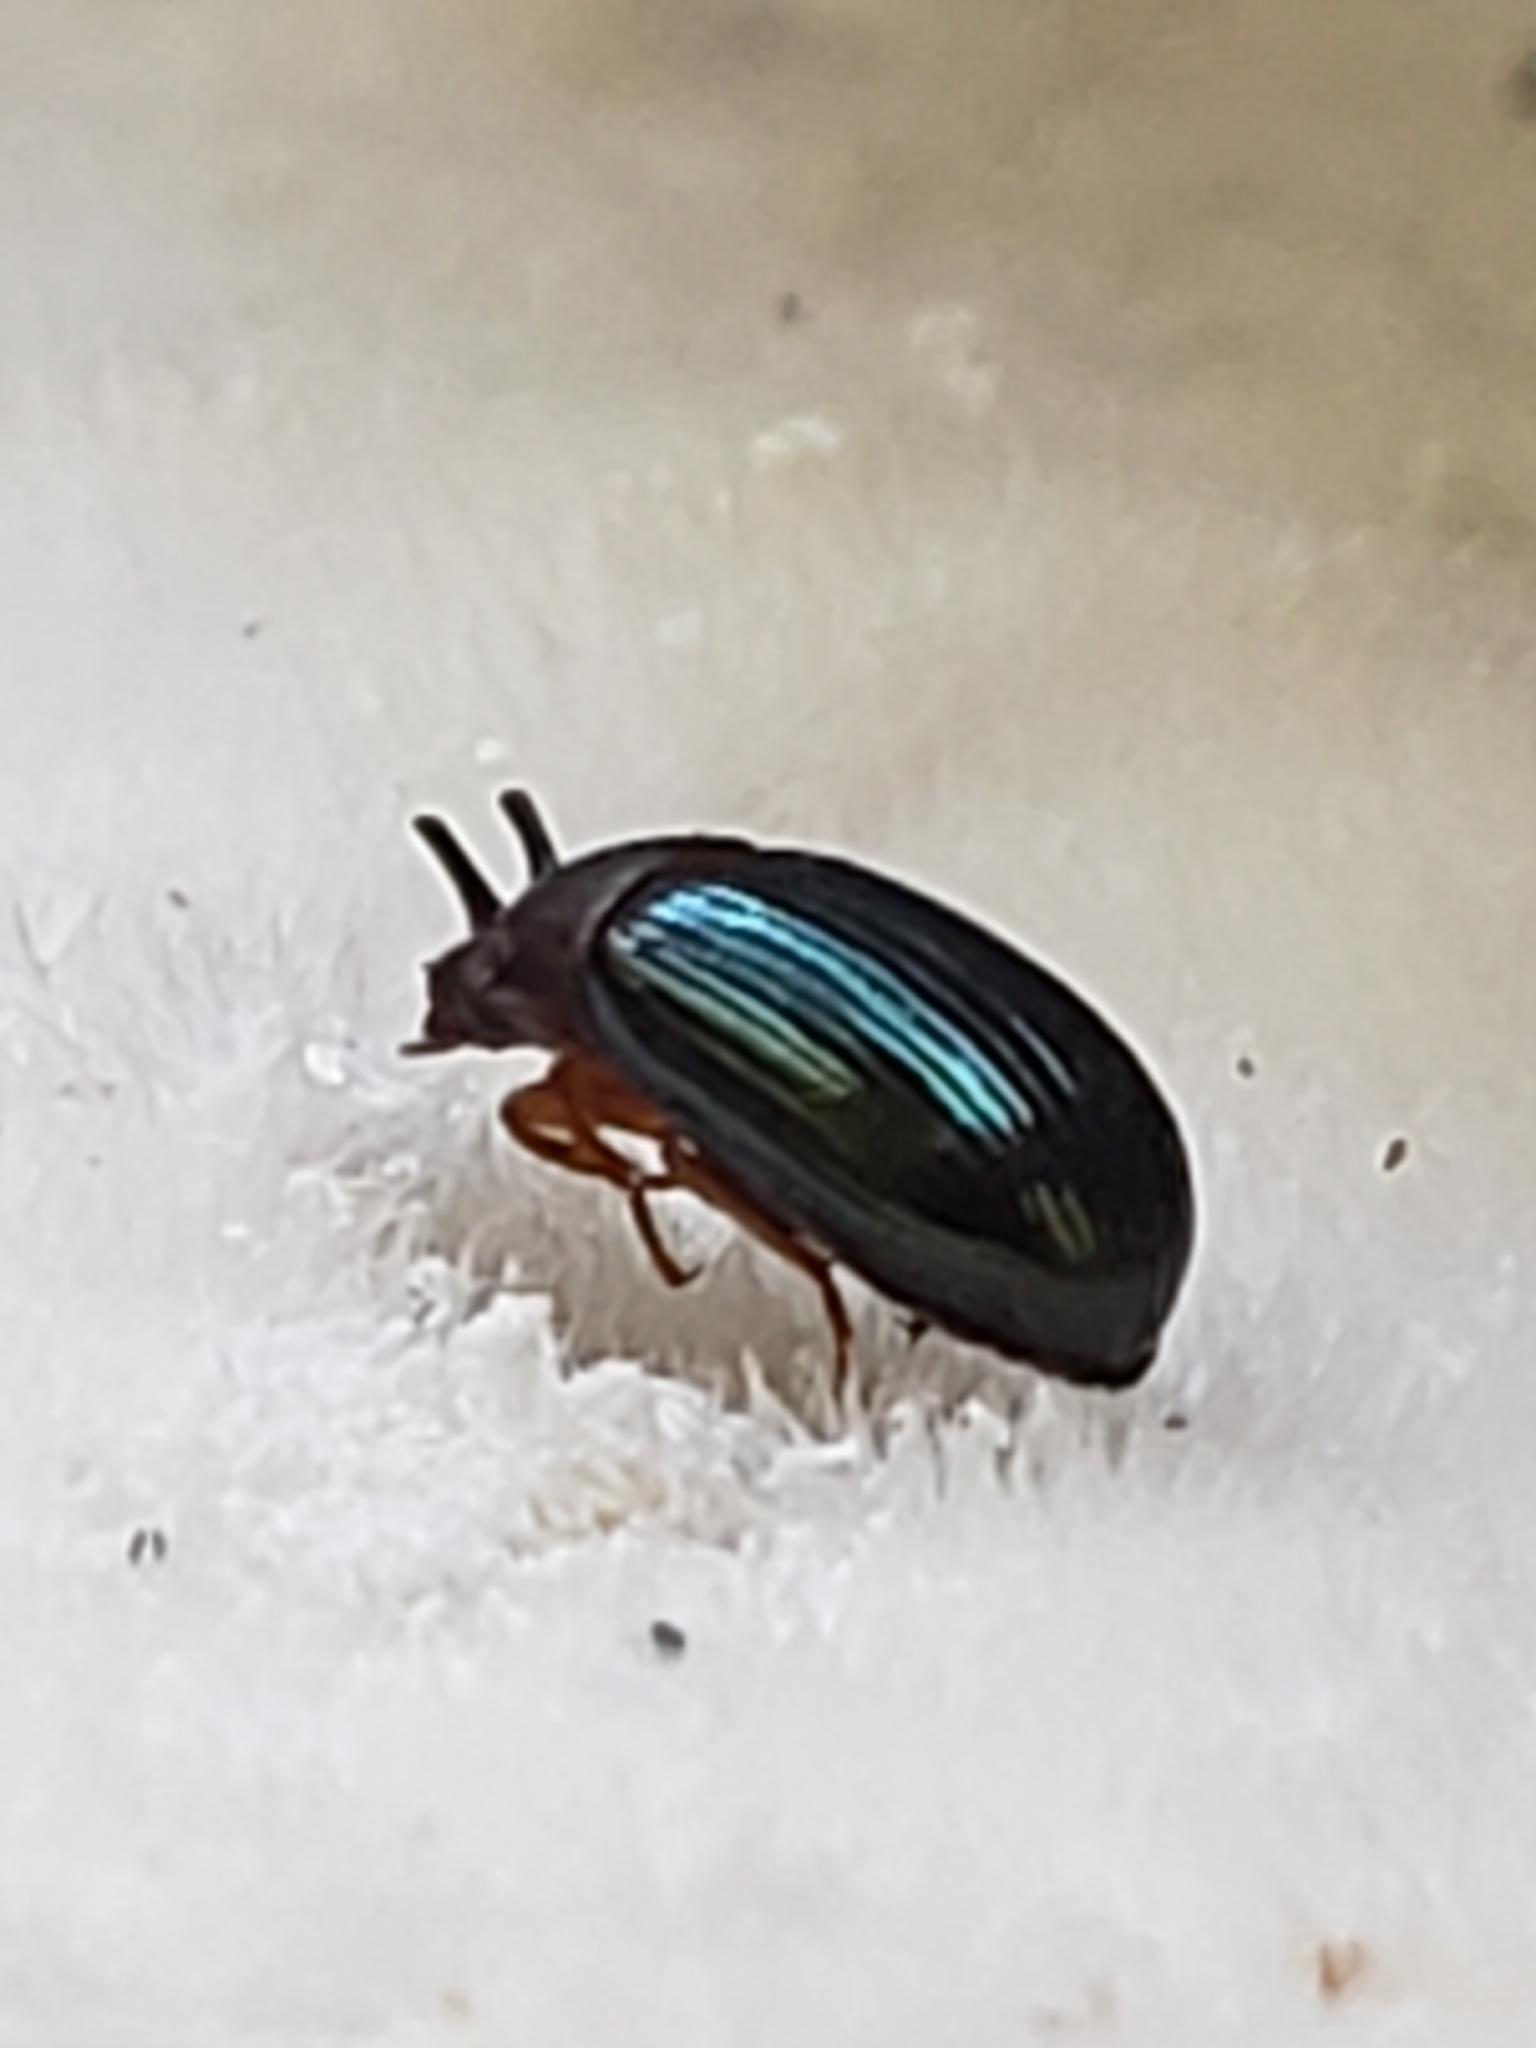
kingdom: Animalia
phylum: Arthropoda
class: Insecta
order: Coleoptera
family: Tenebrionidae
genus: Neomida
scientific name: Neomida bicornis
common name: Two-horned darkling beetle
